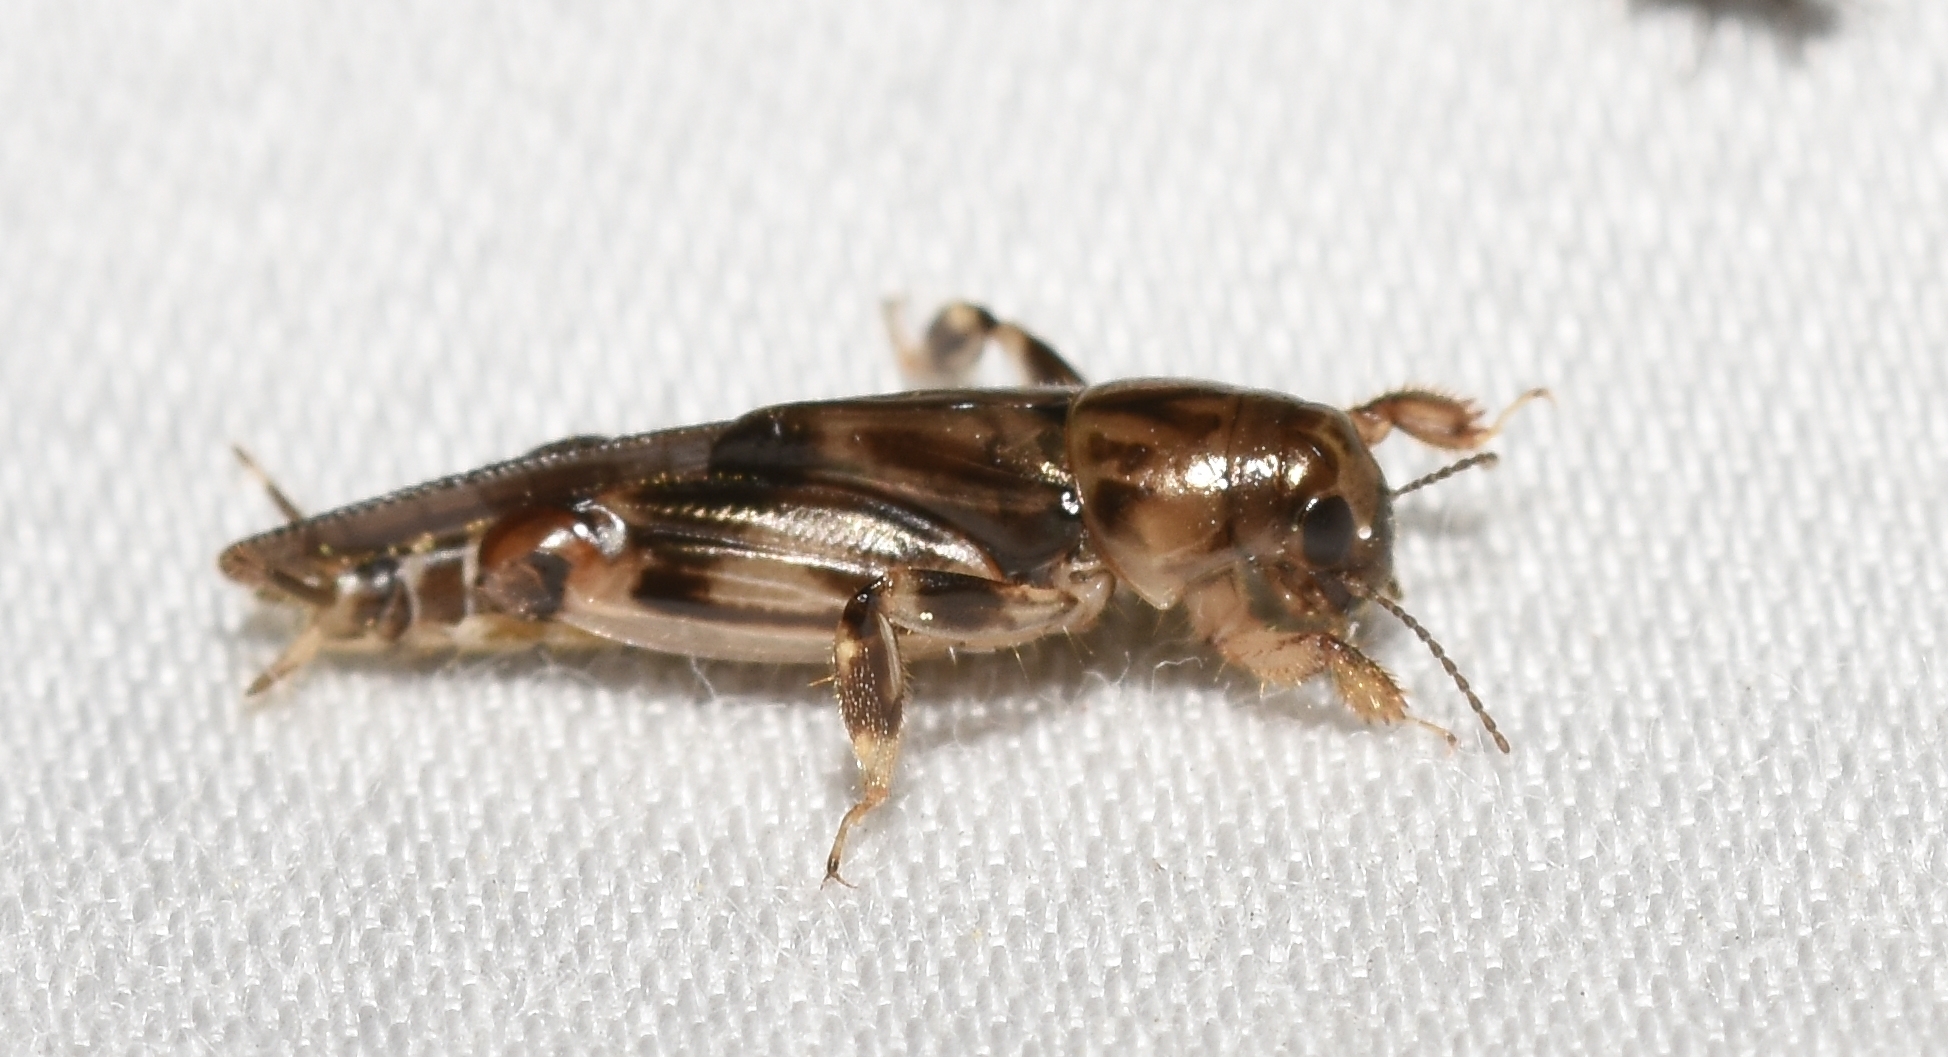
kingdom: Animalia
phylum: Arthropoda
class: Insecta
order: Orthoptera
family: Tridactylidae
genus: Neotridactylus
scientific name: Neotridactylus apicialis
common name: Larger pygmy locust
